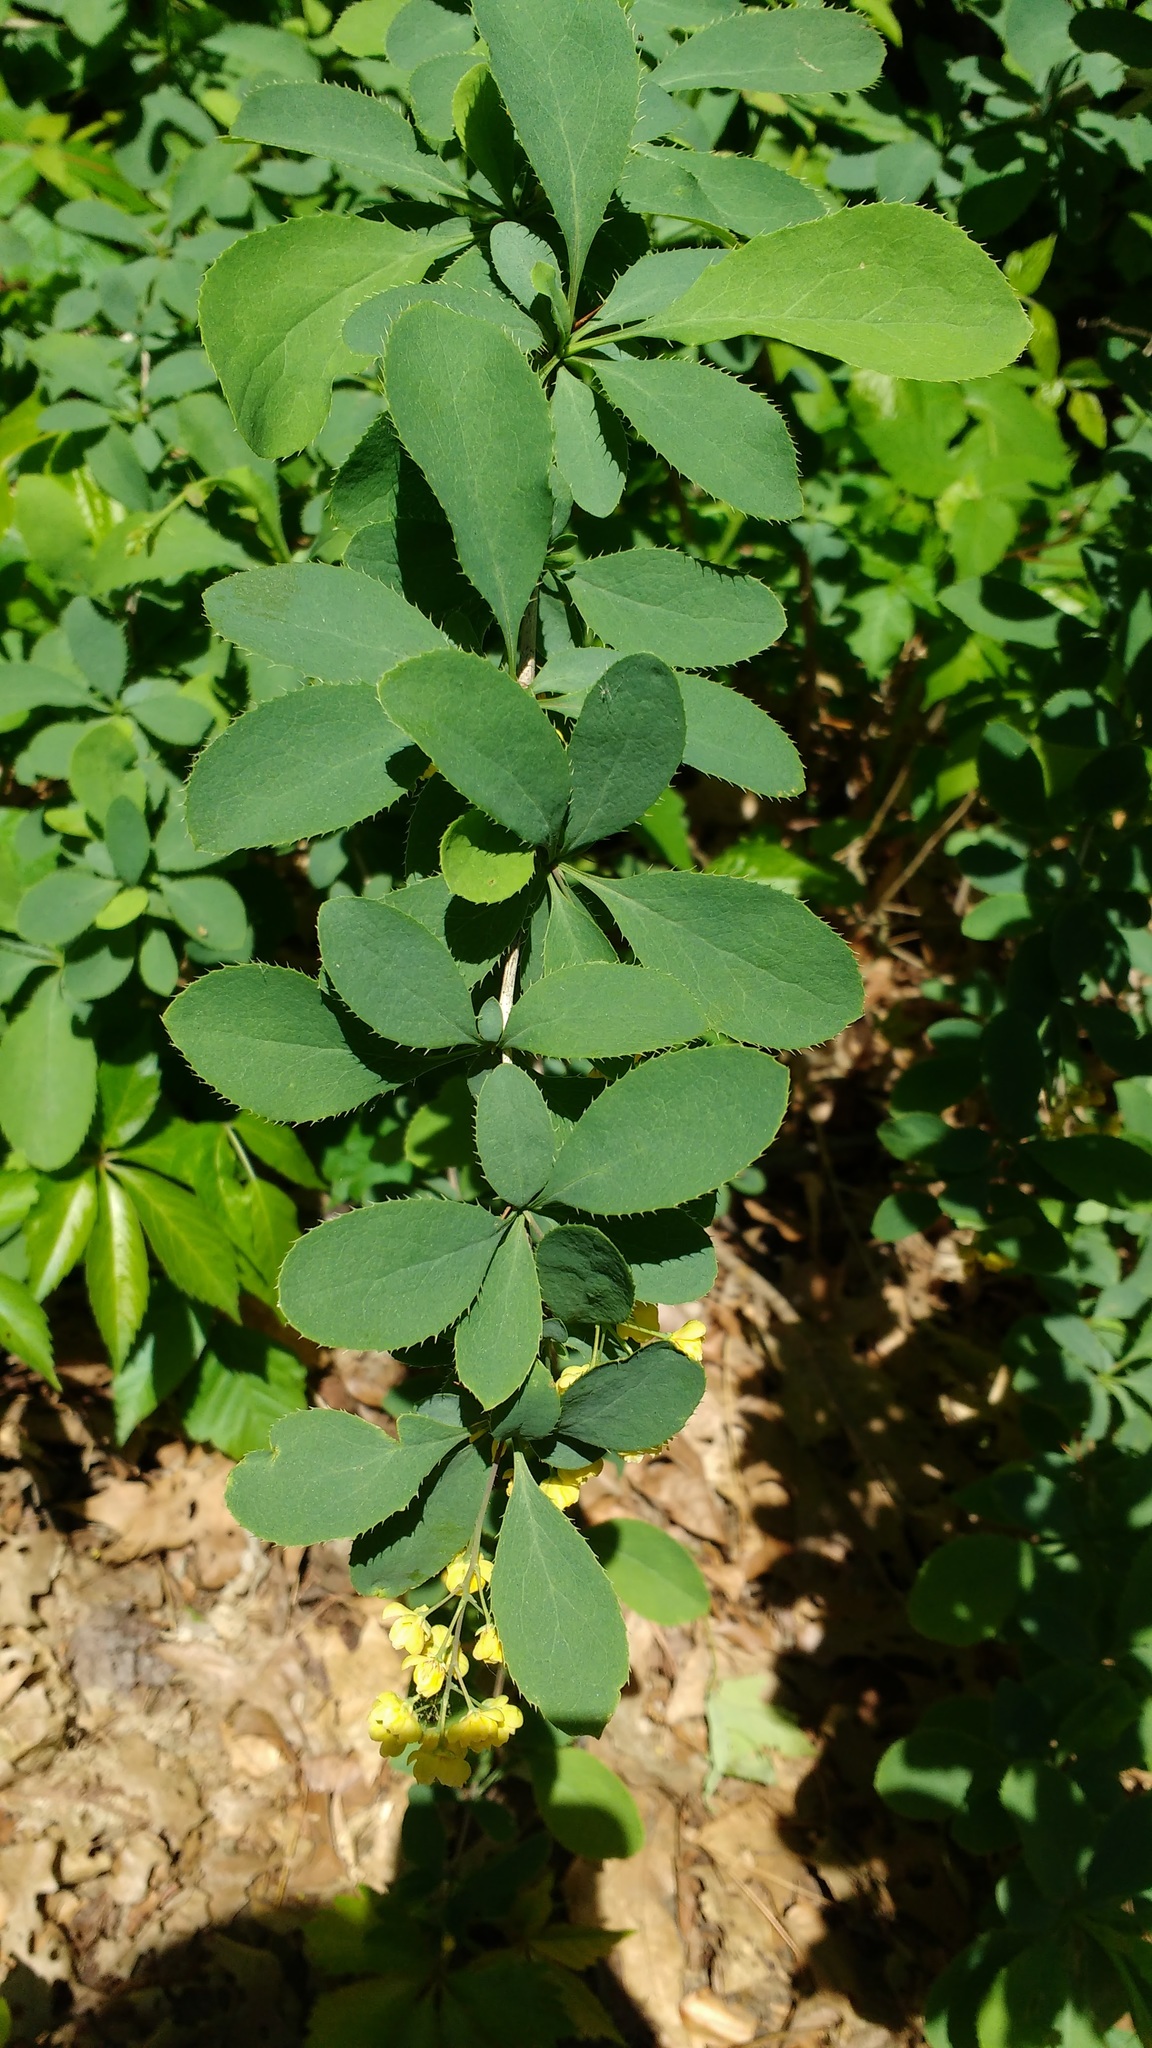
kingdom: Plantae
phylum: Tracheophyta
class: Magnoliopsida
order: Ranunculales
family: Berberidaceae
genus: Berberis
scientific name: Berberis vulgaris
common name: Barberry
